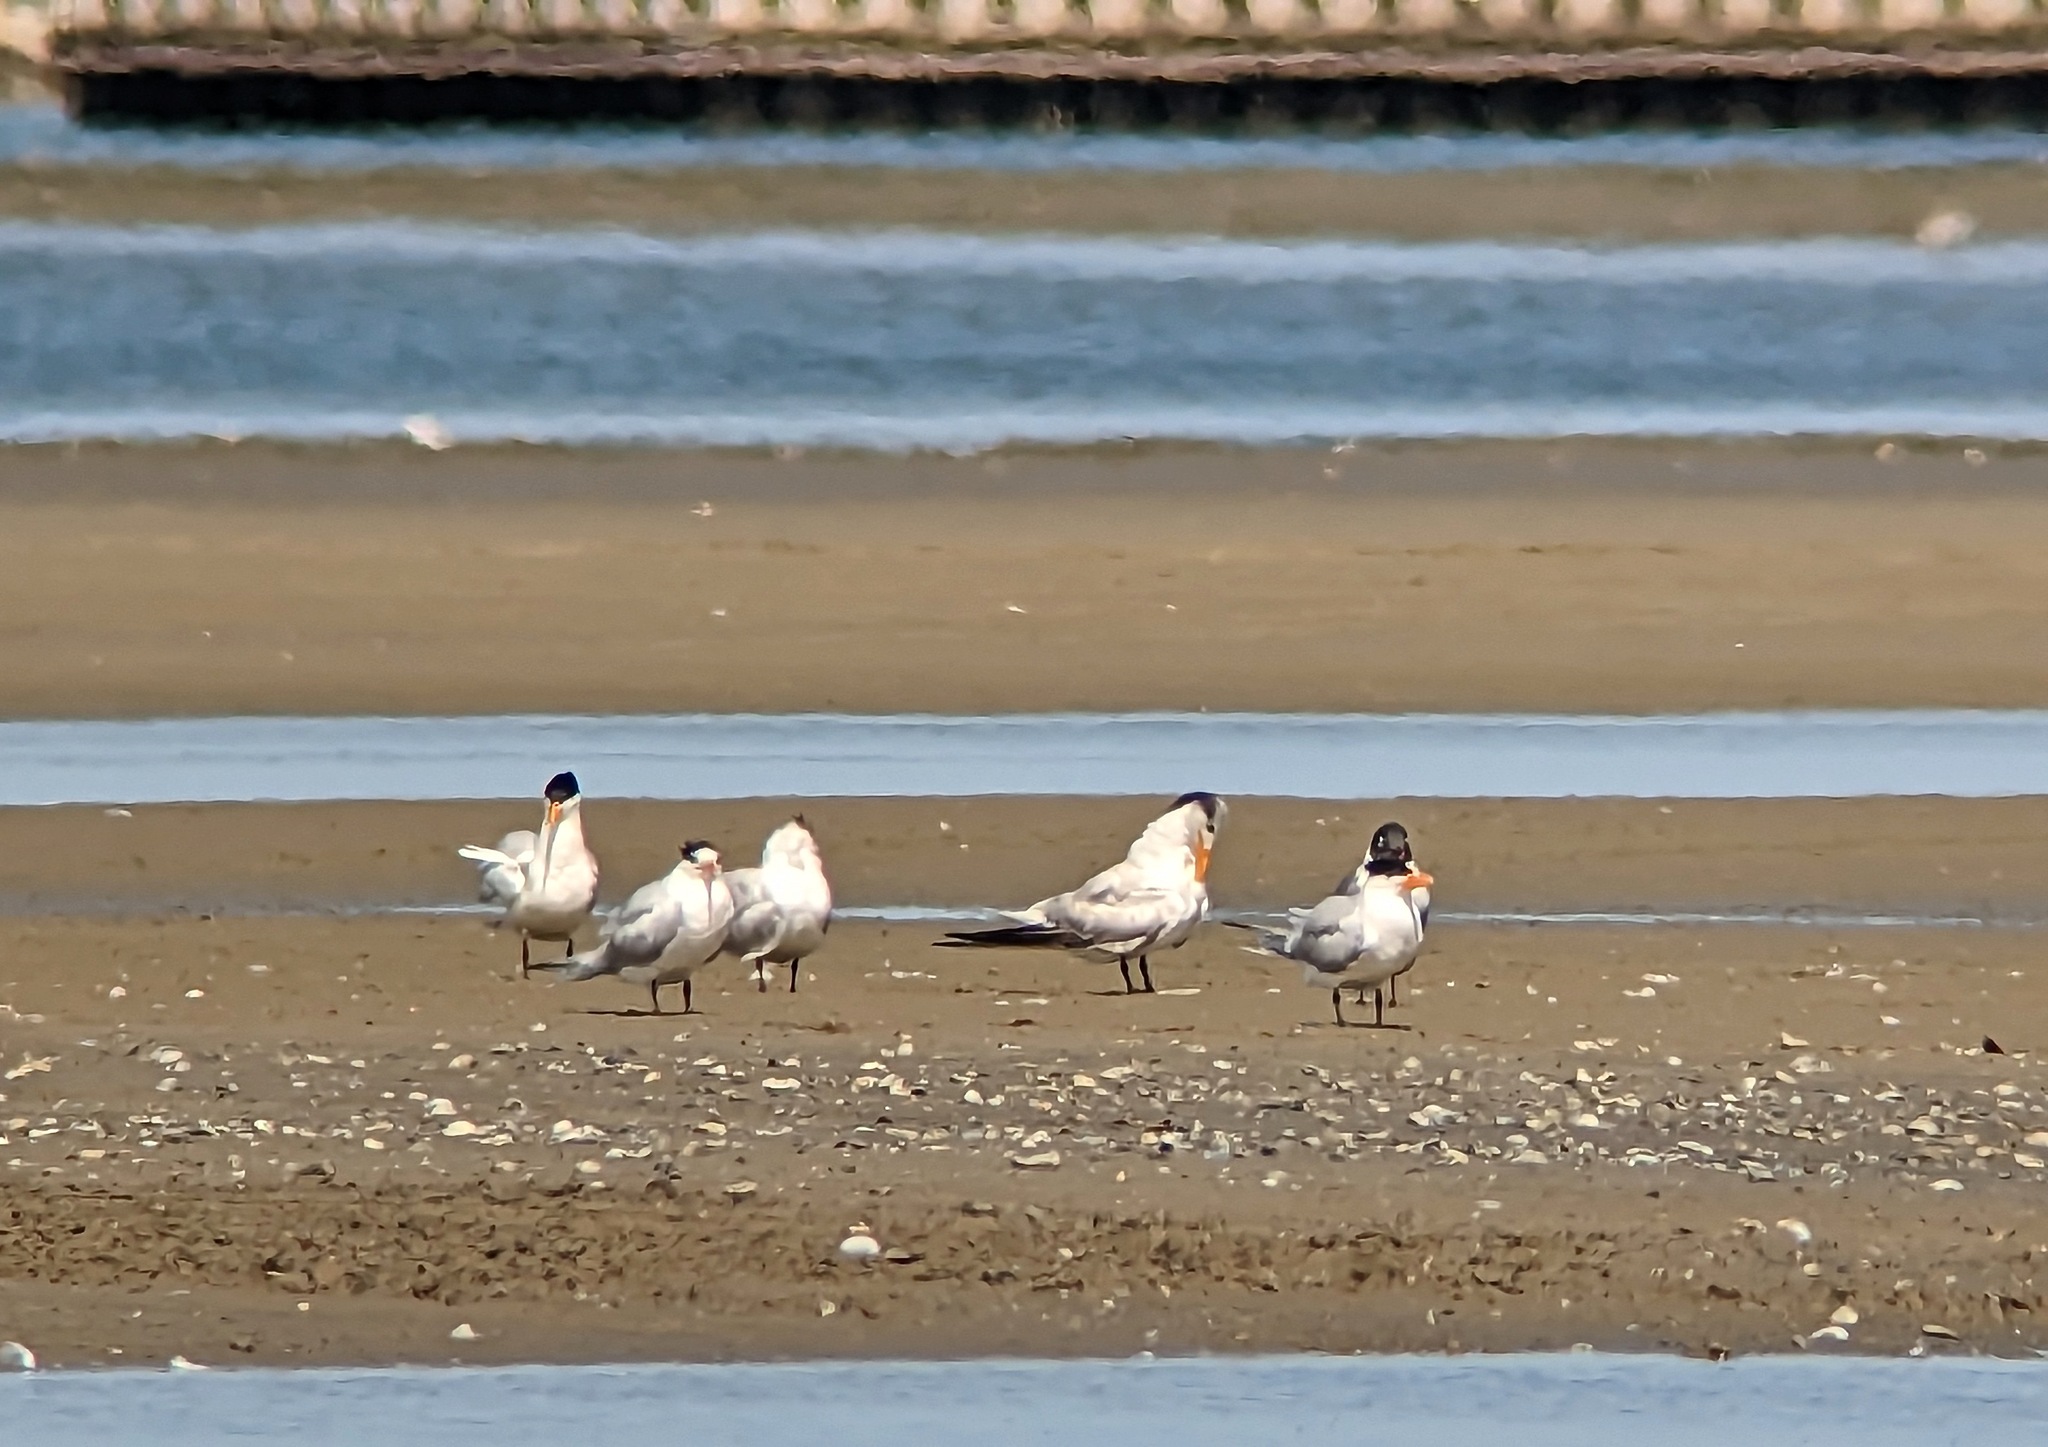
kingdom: Animalia
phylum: Chordata
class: Aves
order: Charadriiformes
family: Laridae
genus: Thalasseus
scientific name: Thalasseus maximus
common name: Royal tern
